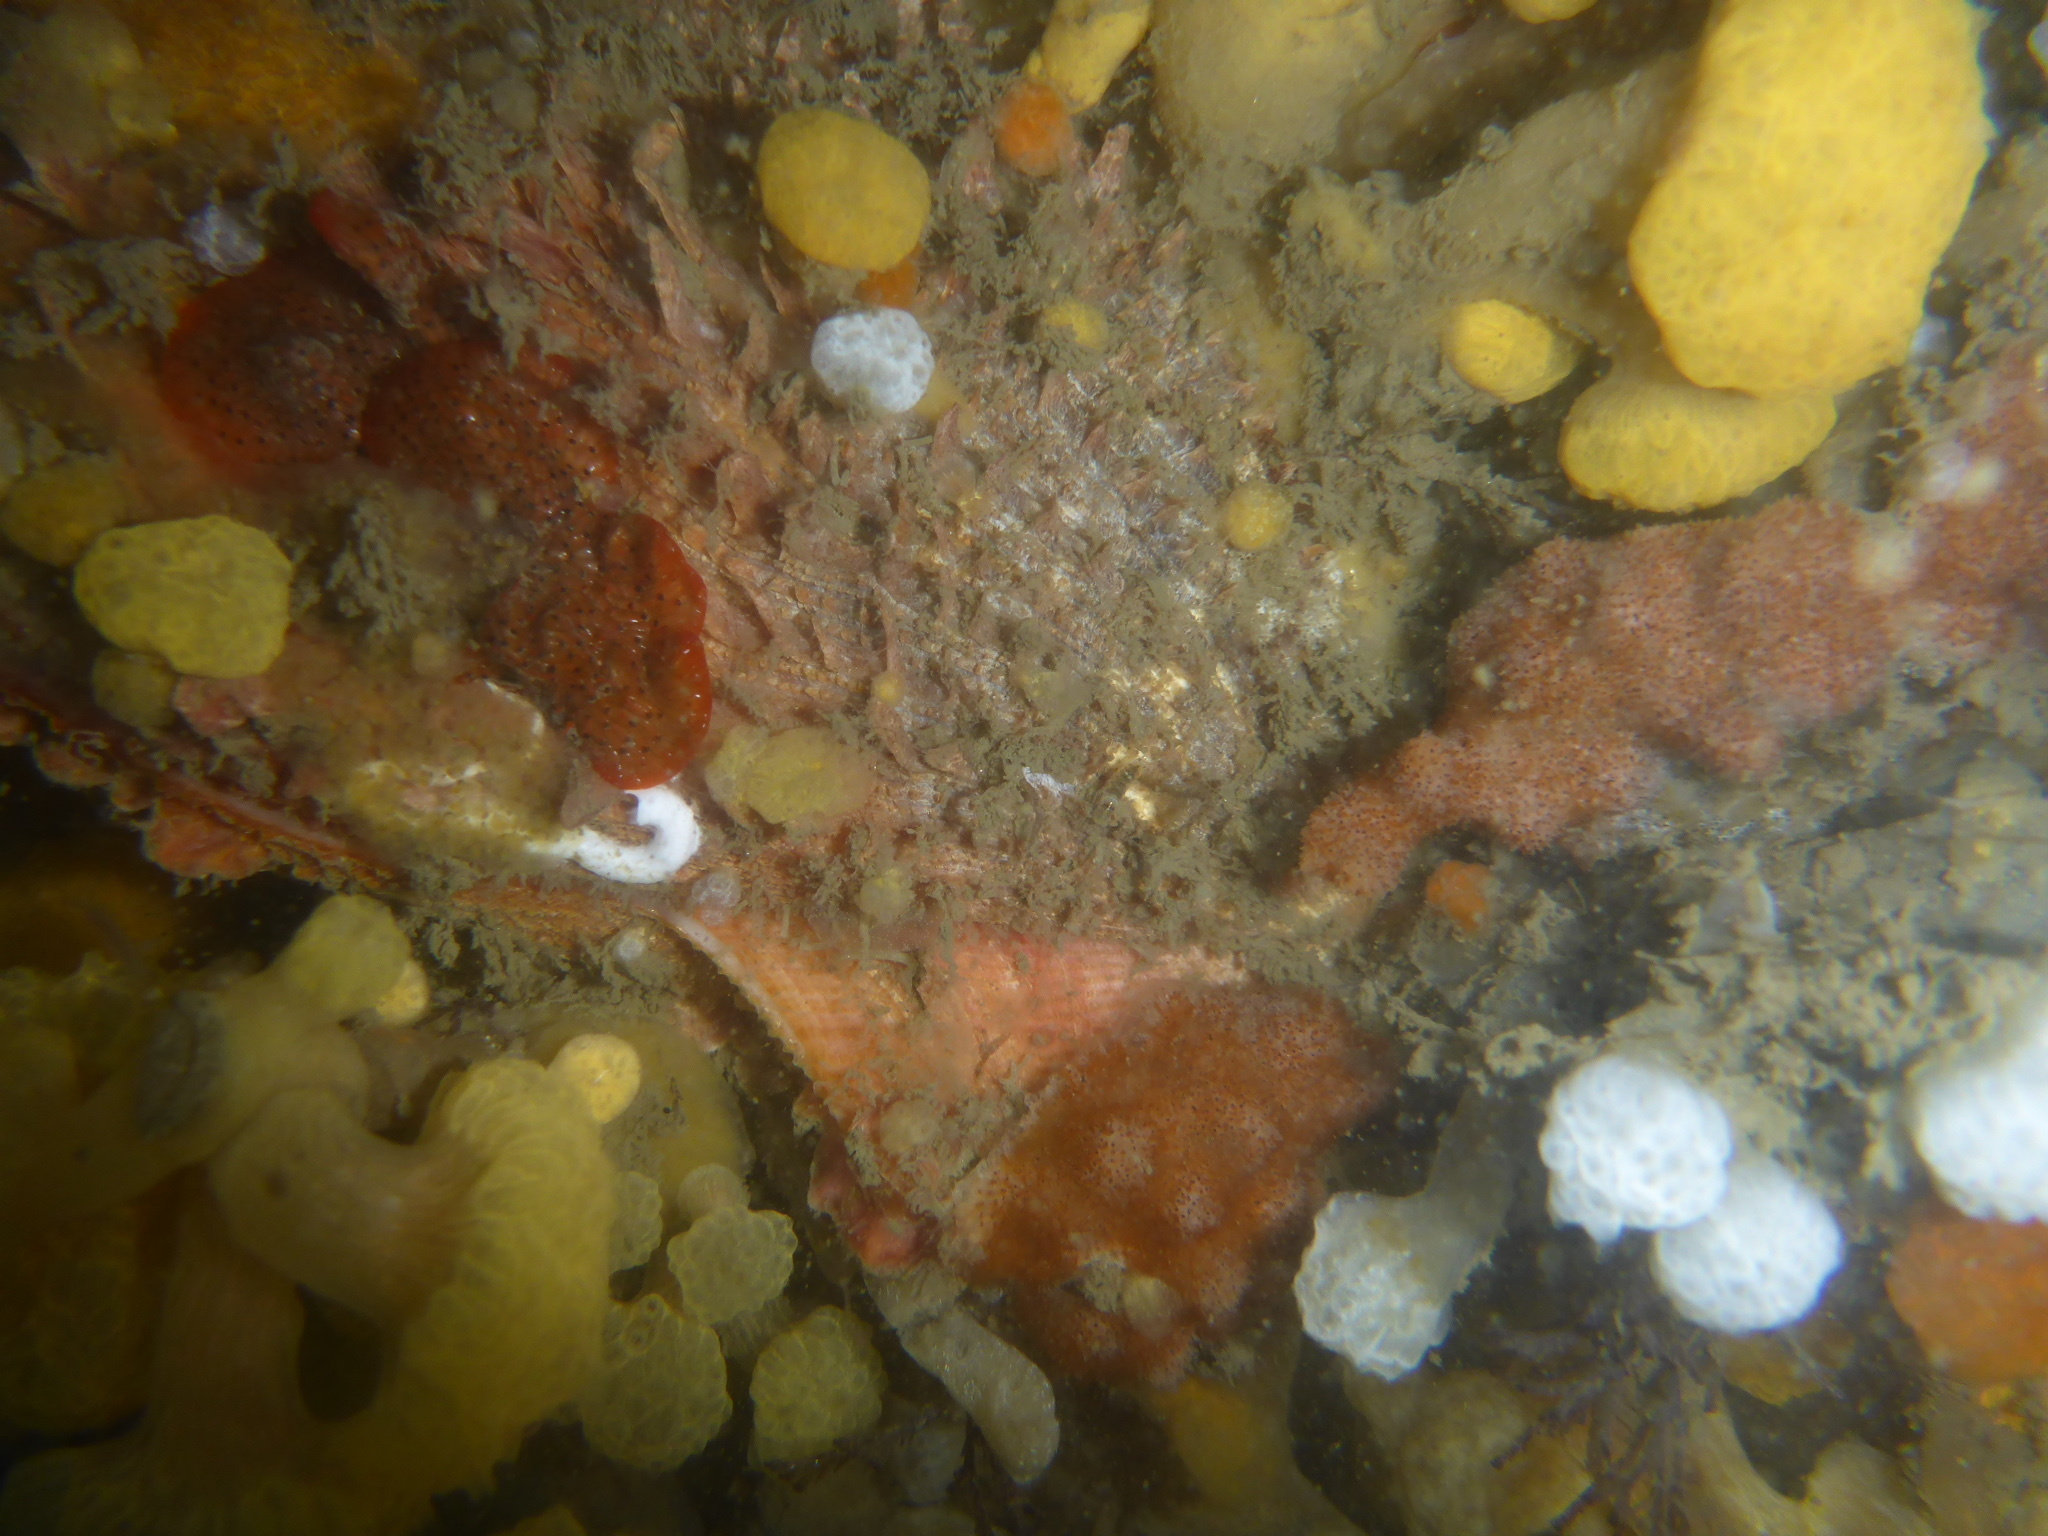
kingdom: Animalia
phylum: Mollusca
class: Bivalvia
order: Pectinida
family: Pectinidae
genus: Crassadoma
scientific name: Crassadoma gigantea
